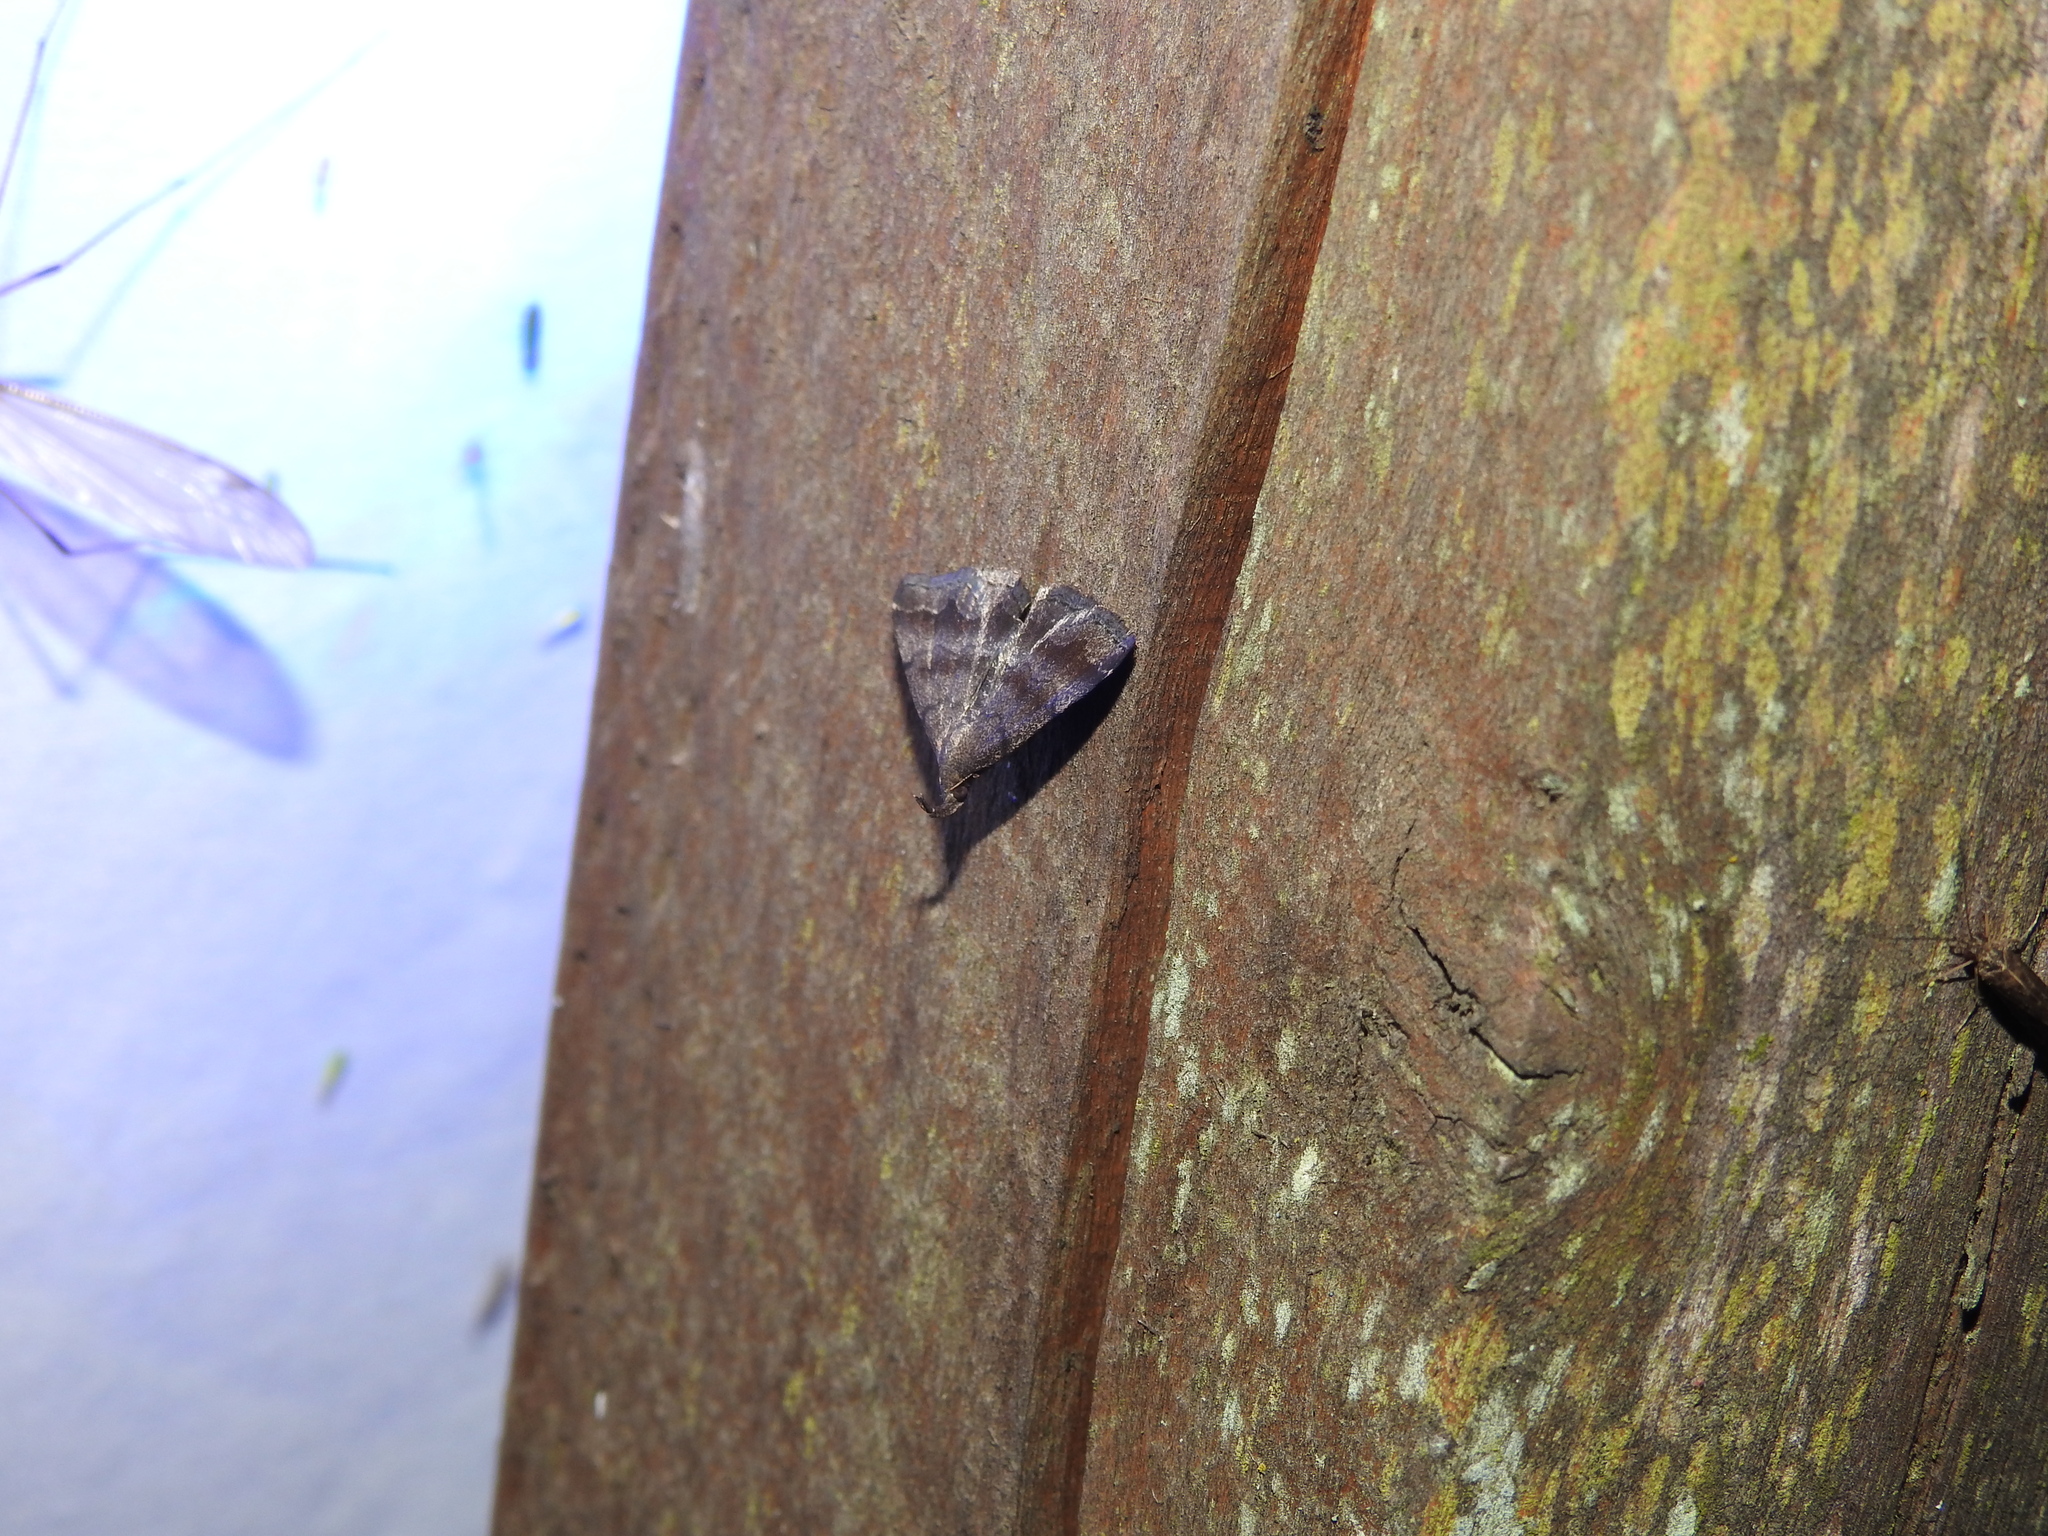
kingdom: Animalia
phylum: Arthropoda
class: Insecta
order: Lepidoptera
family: Erebidae
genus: Phalaenostola
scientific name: Phalaenostola larentioides
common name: Black-banded owlet
